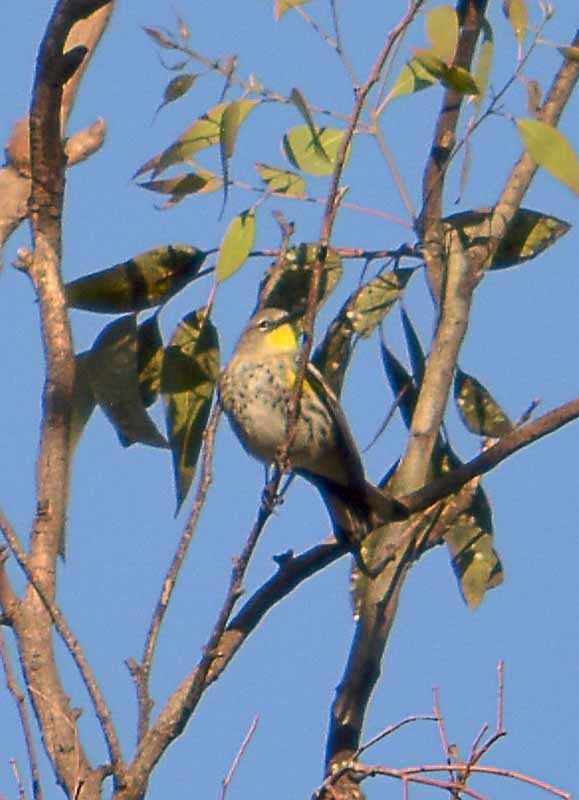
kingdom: Animalia
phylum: Chordata
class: Aves
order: Passeriformes
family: Parulidae
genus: Setophaga
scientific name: Setophaga coronata
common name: Myrtle warbler
